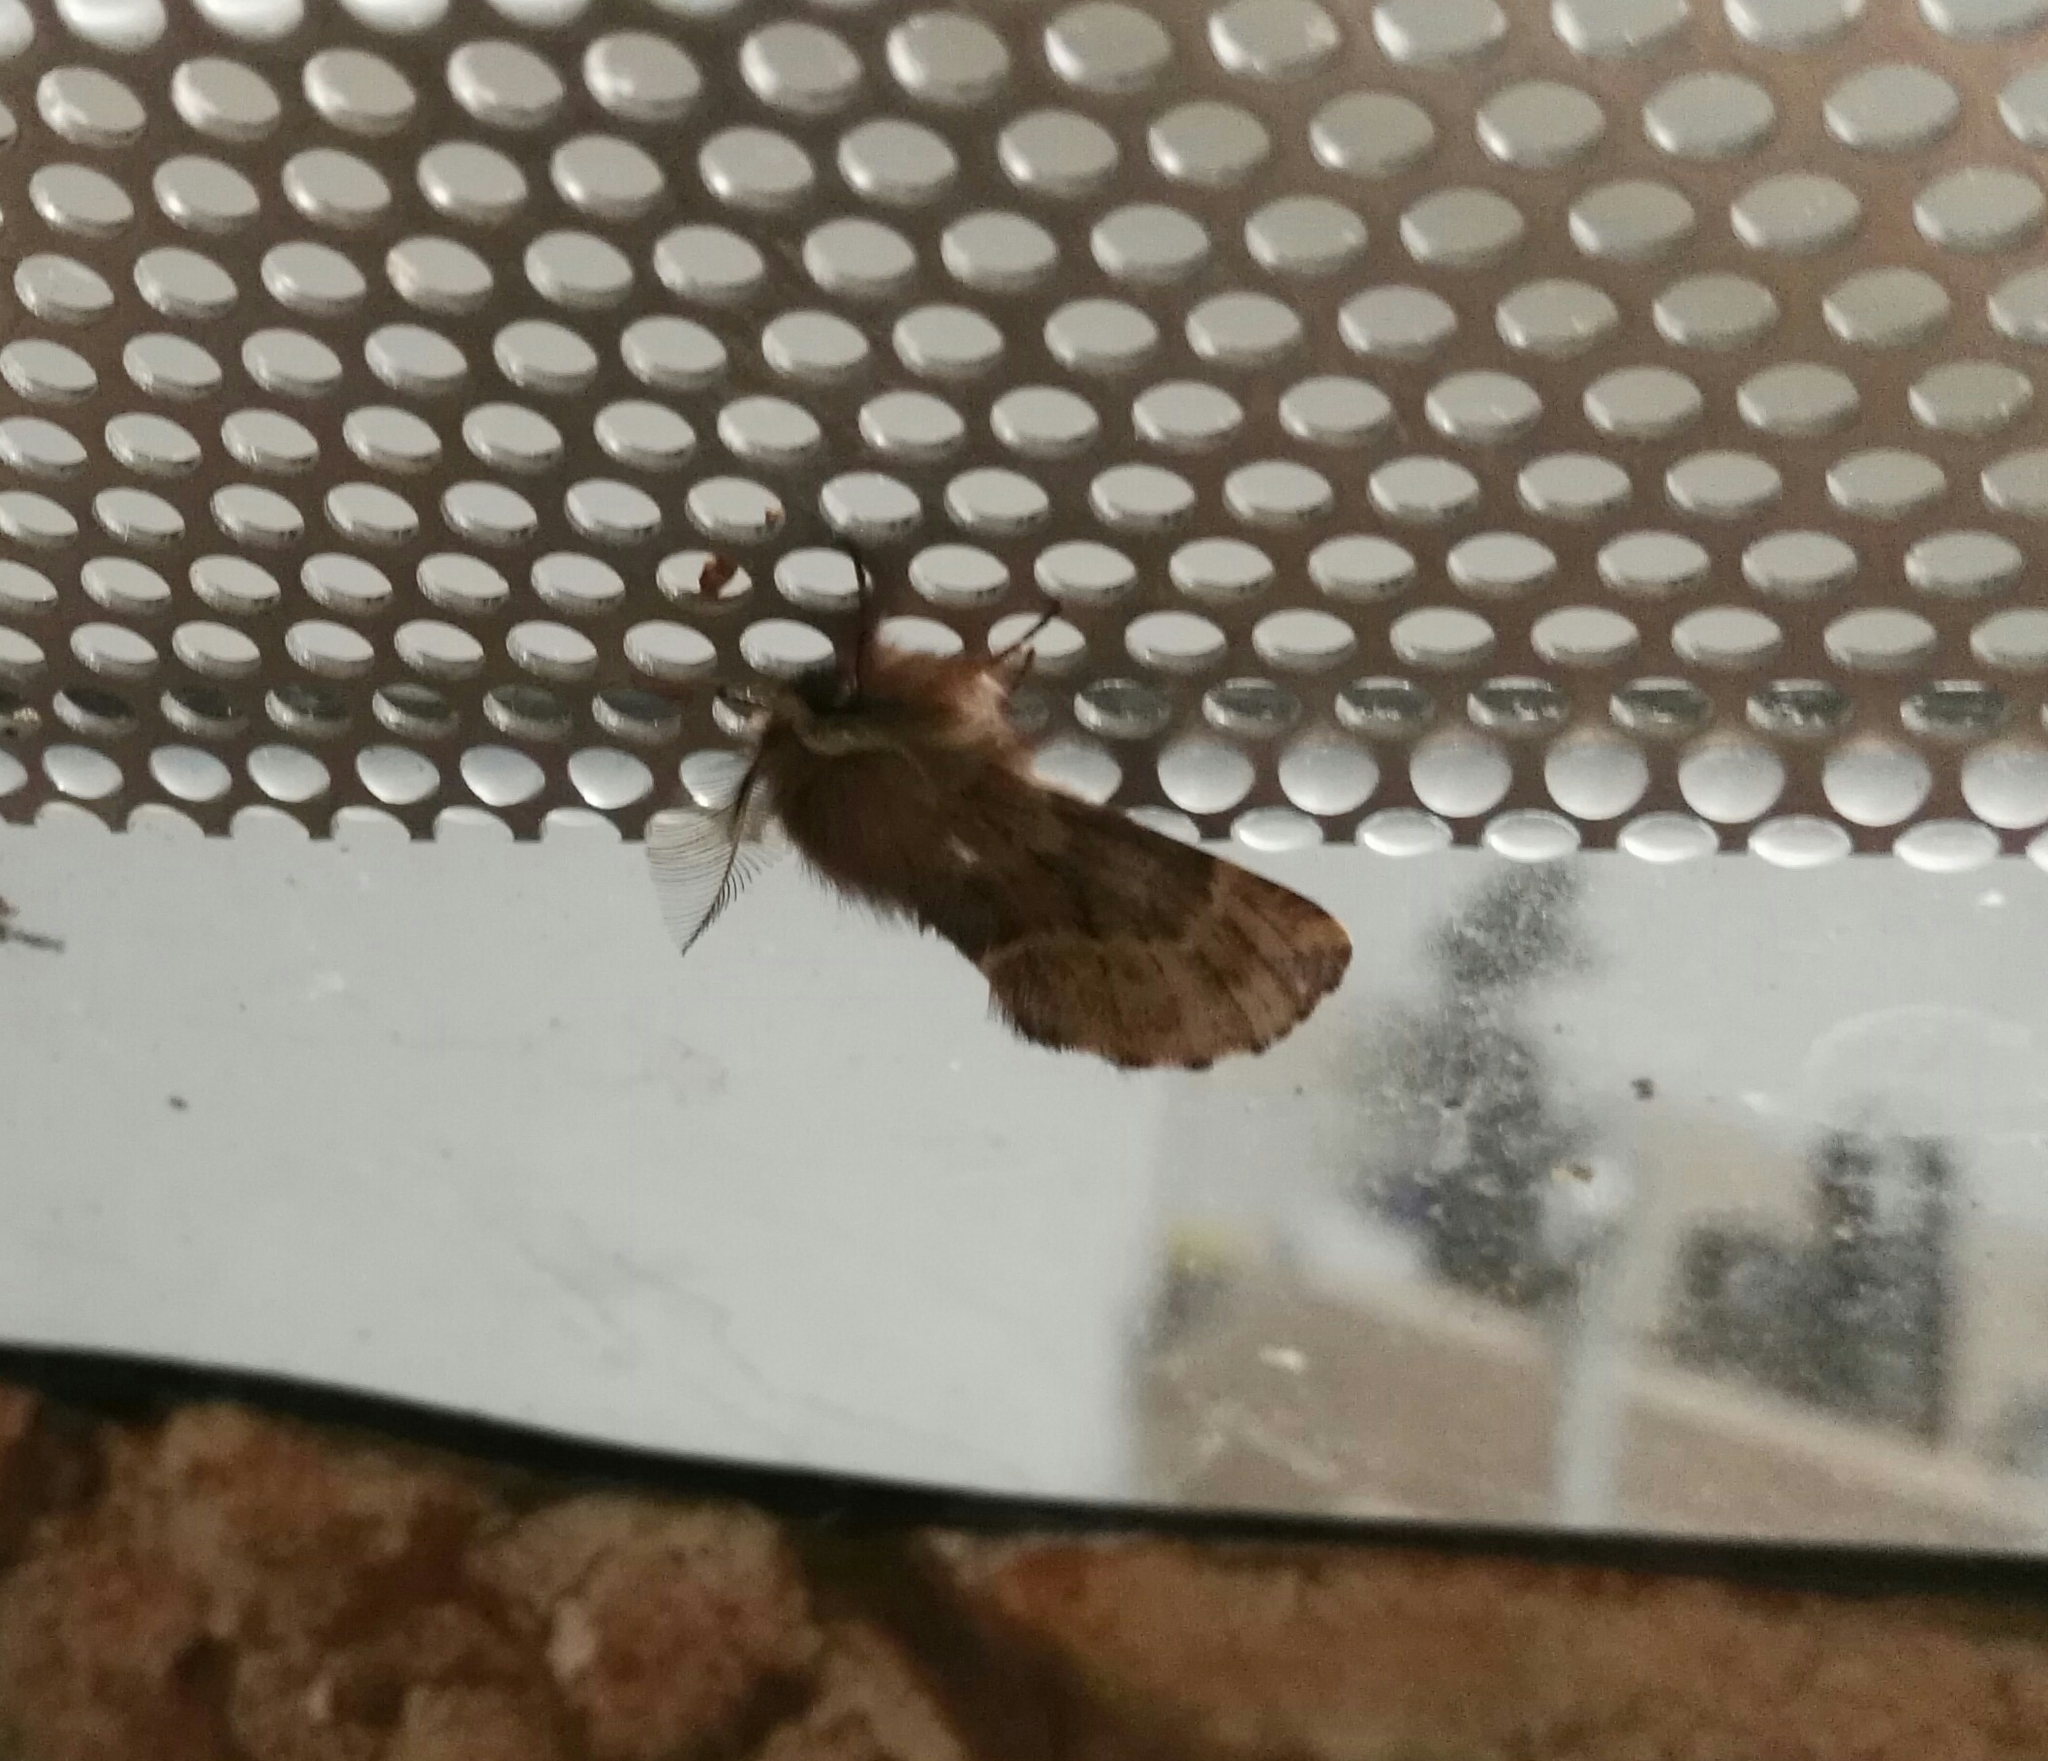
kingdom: Animalia
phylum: Arthropoda
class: Insecta
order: Lepidoptera
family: Notodontidae
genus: Ptilophora
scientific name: Ptilophora plumigera
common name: Plumed prominent
